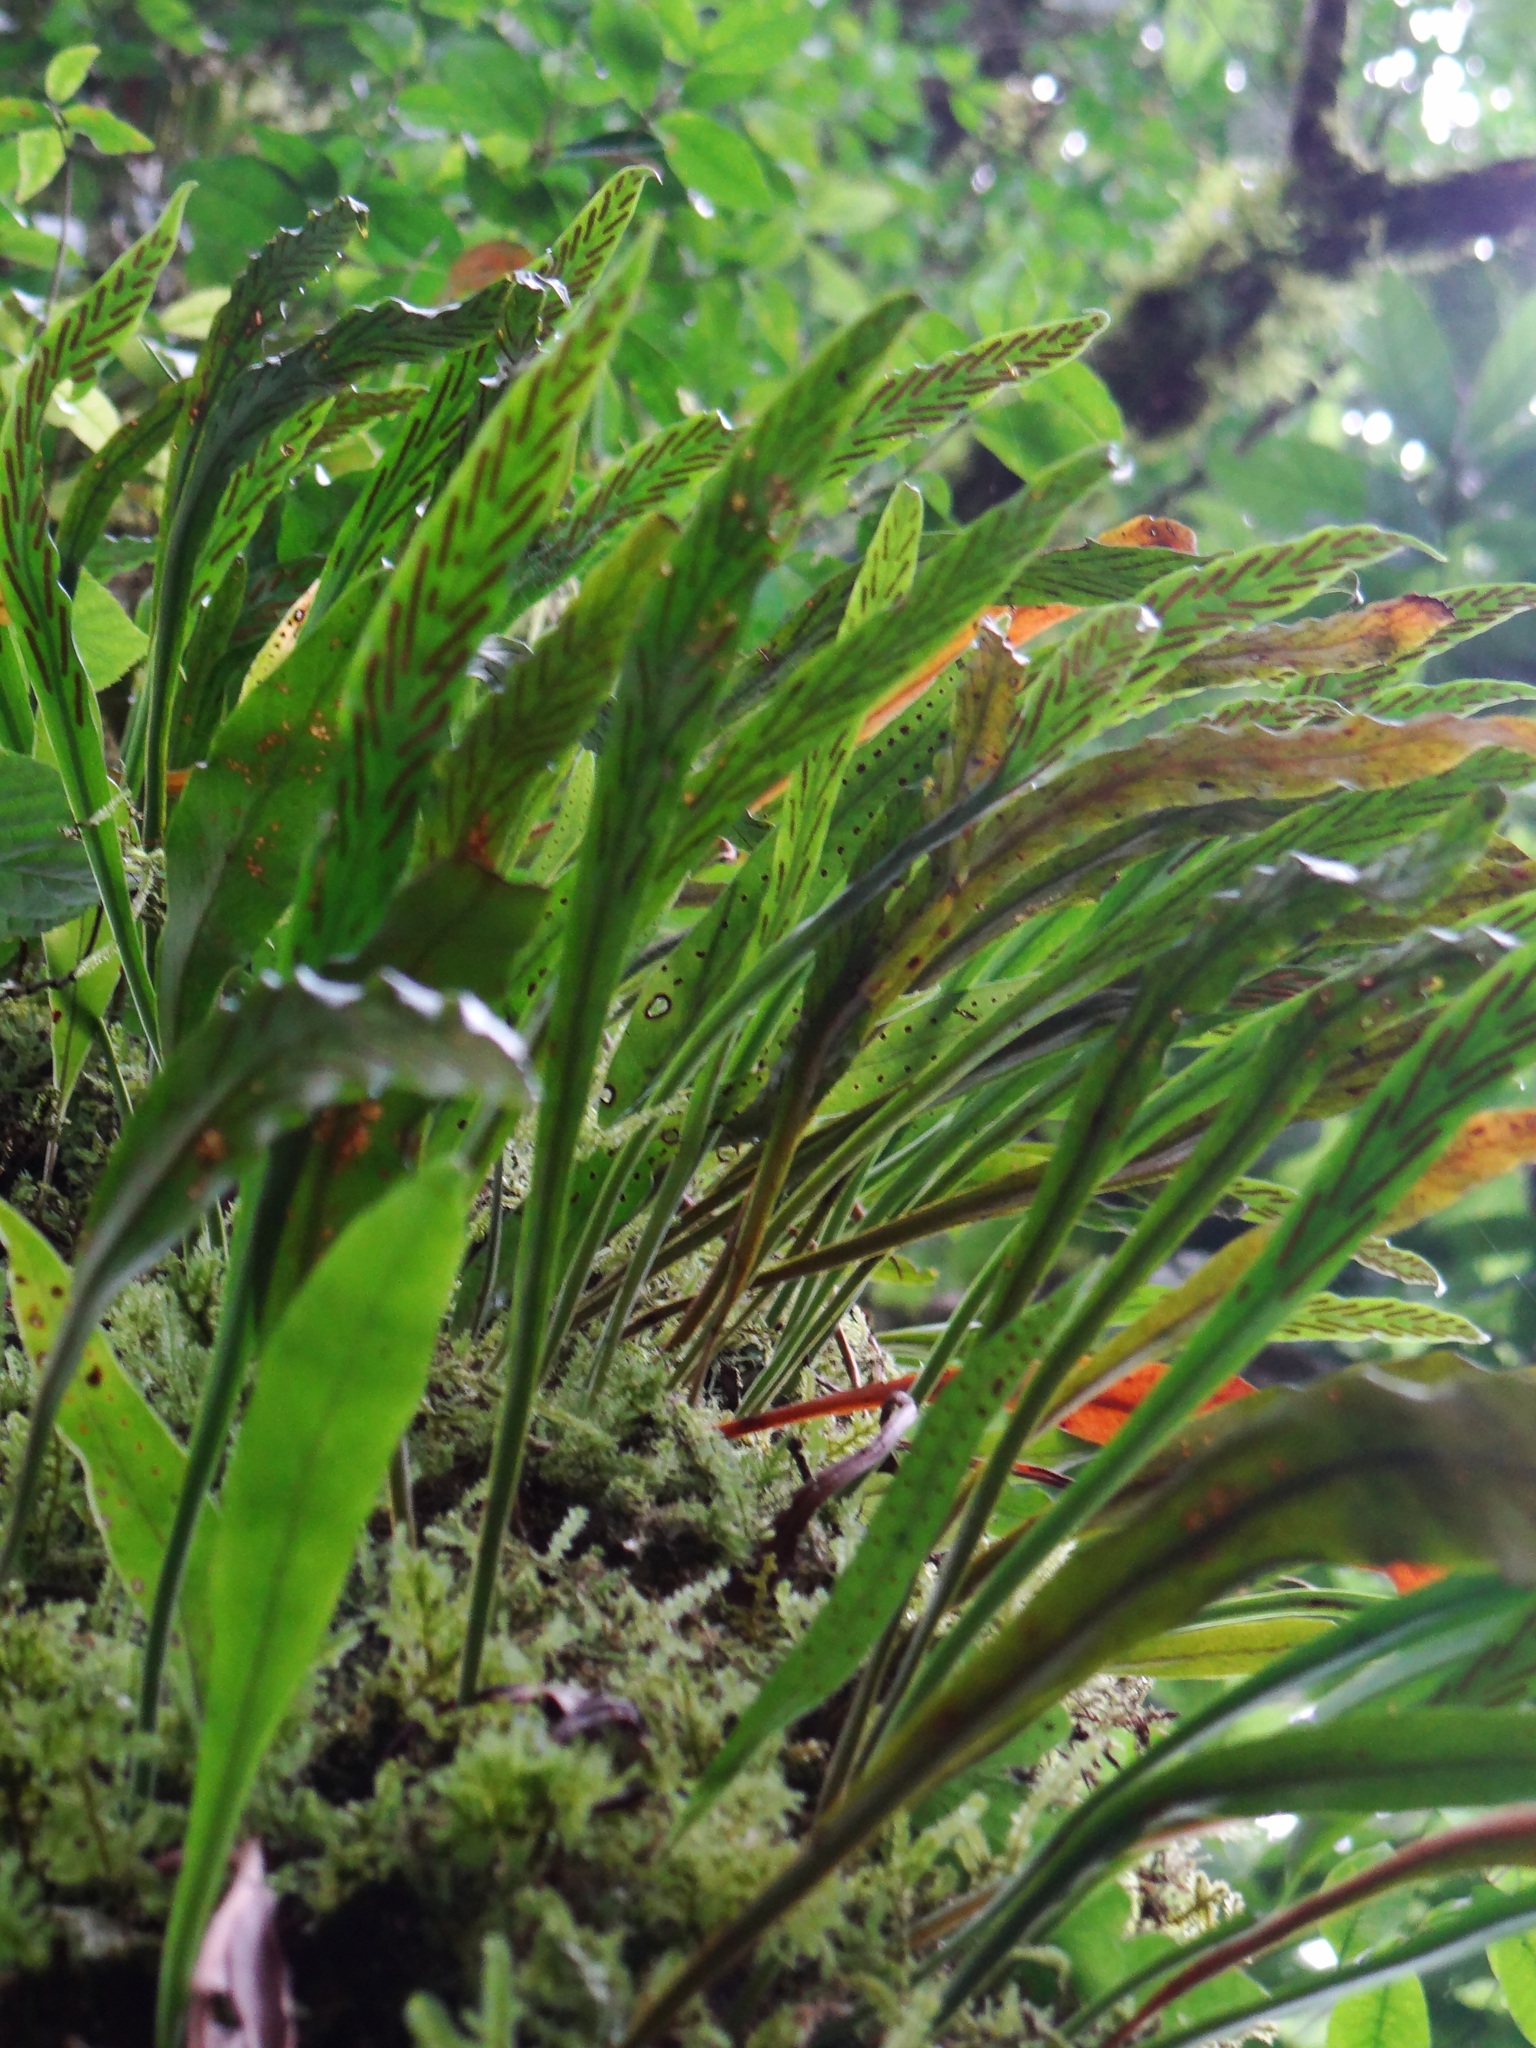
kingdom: Plantae
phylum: Tracheophyta
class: Polypodiopsida
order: Polypodiales
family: Polypodiaceae
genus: Loxogramme
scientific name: Loxogramme salicifolia
